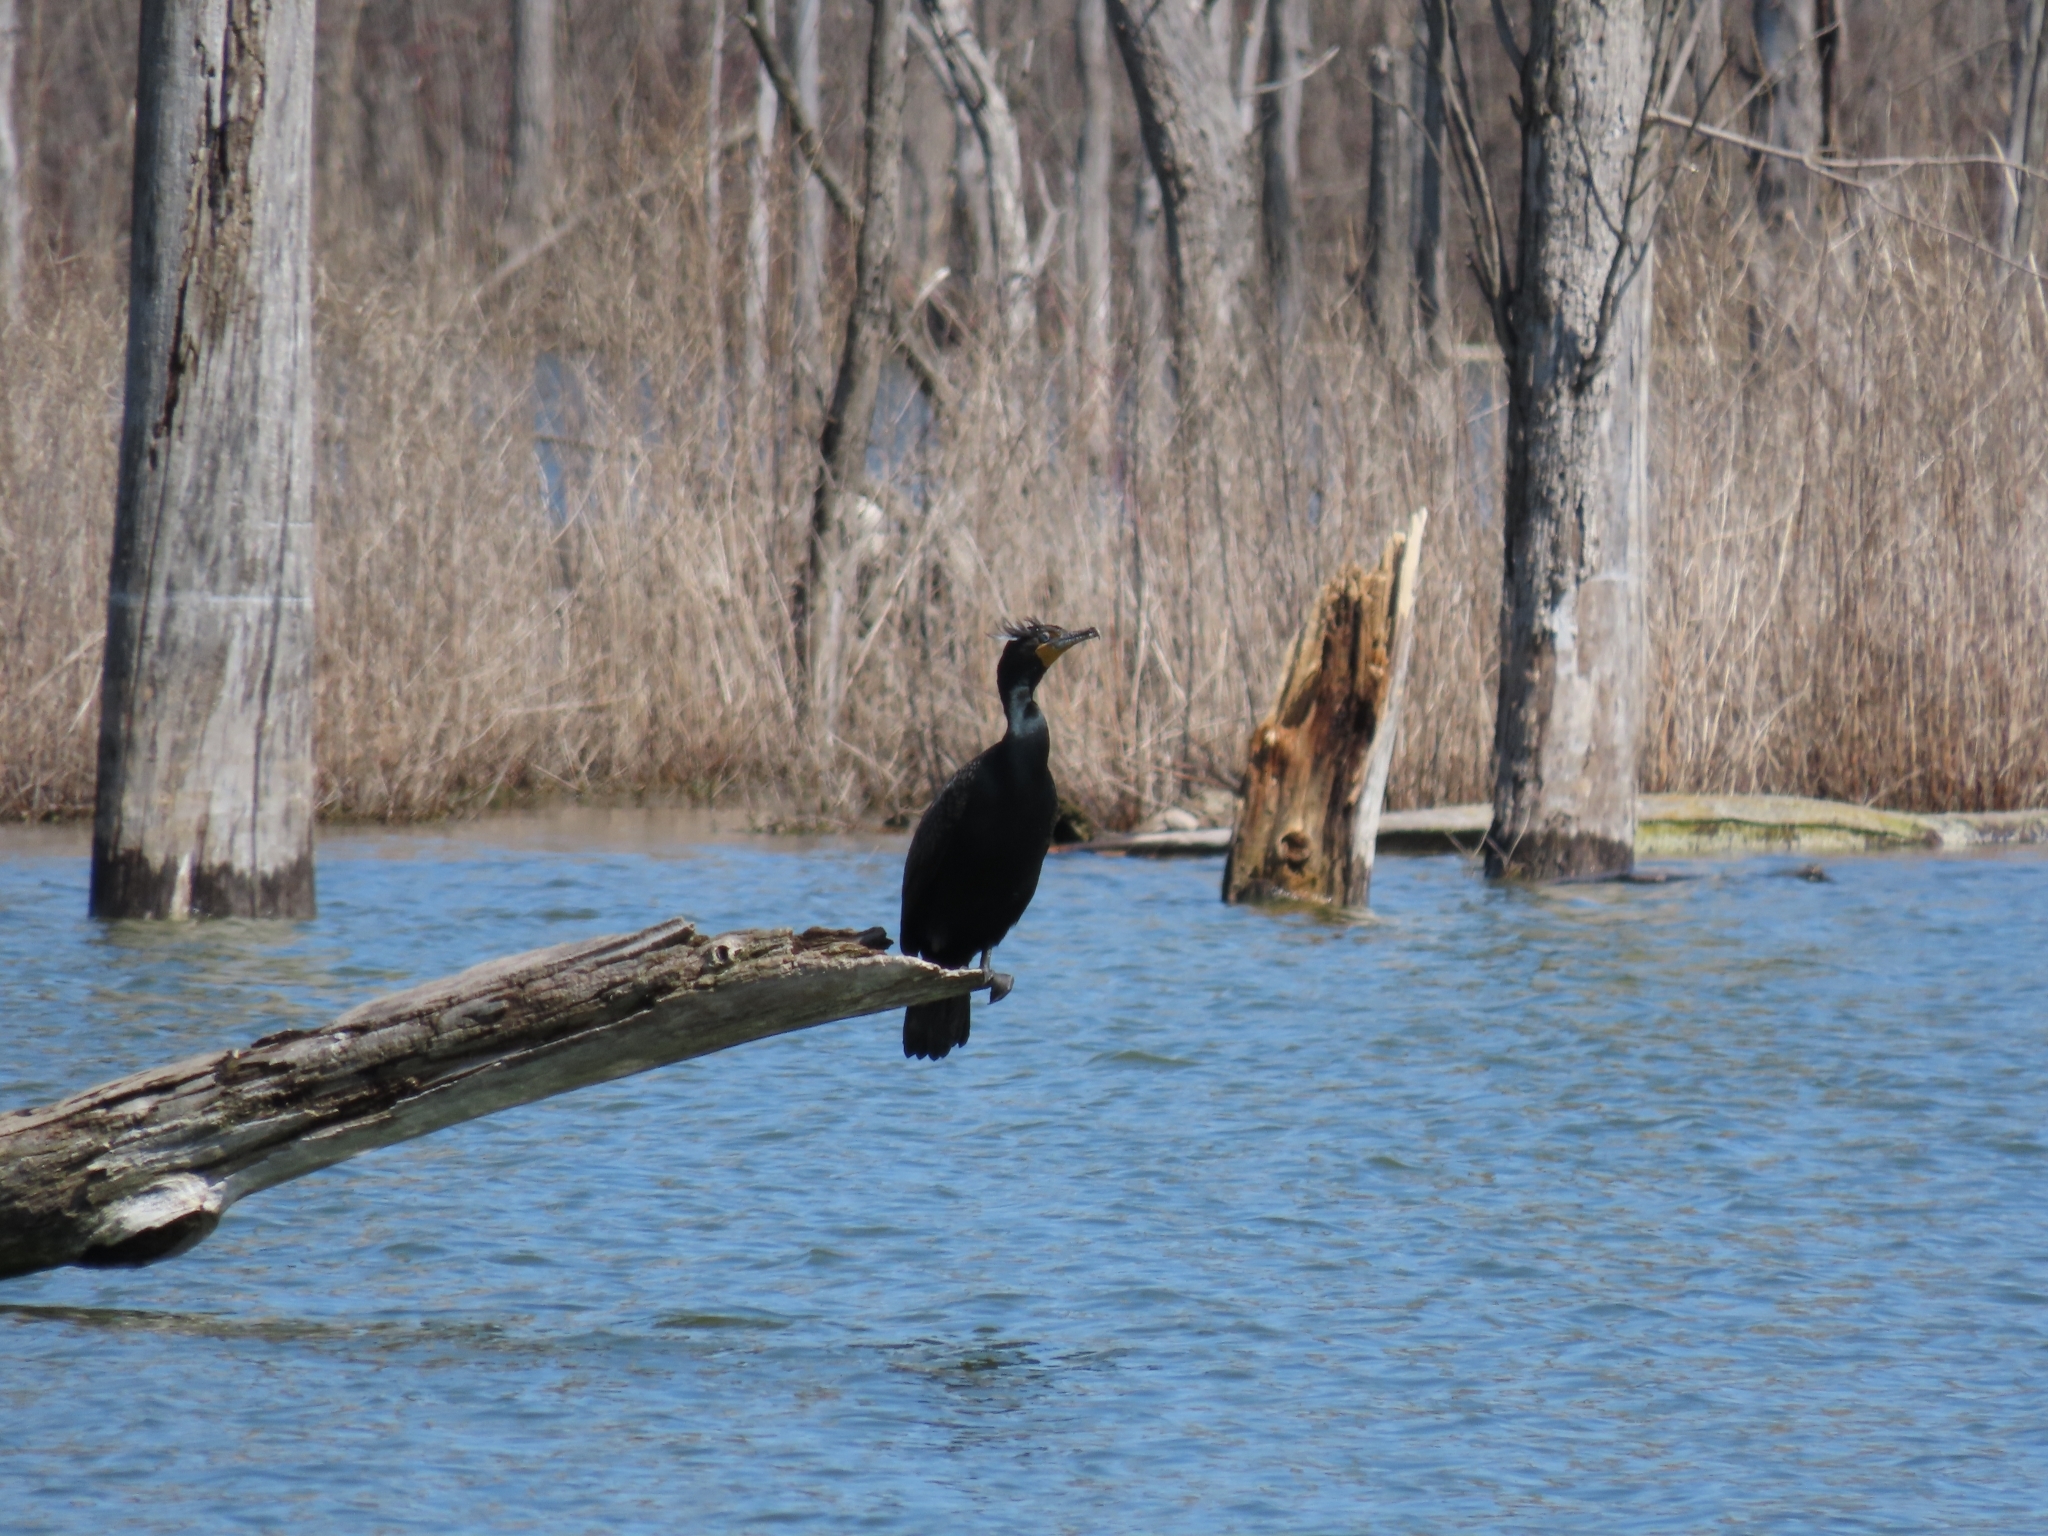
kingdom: Animalia
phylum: Chordata
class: Aves
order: Suliformes
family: Phalacrocoracidae
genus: Phalacrocorax
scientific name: Phalacrocorax auritus
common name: Double-crested cormorant
